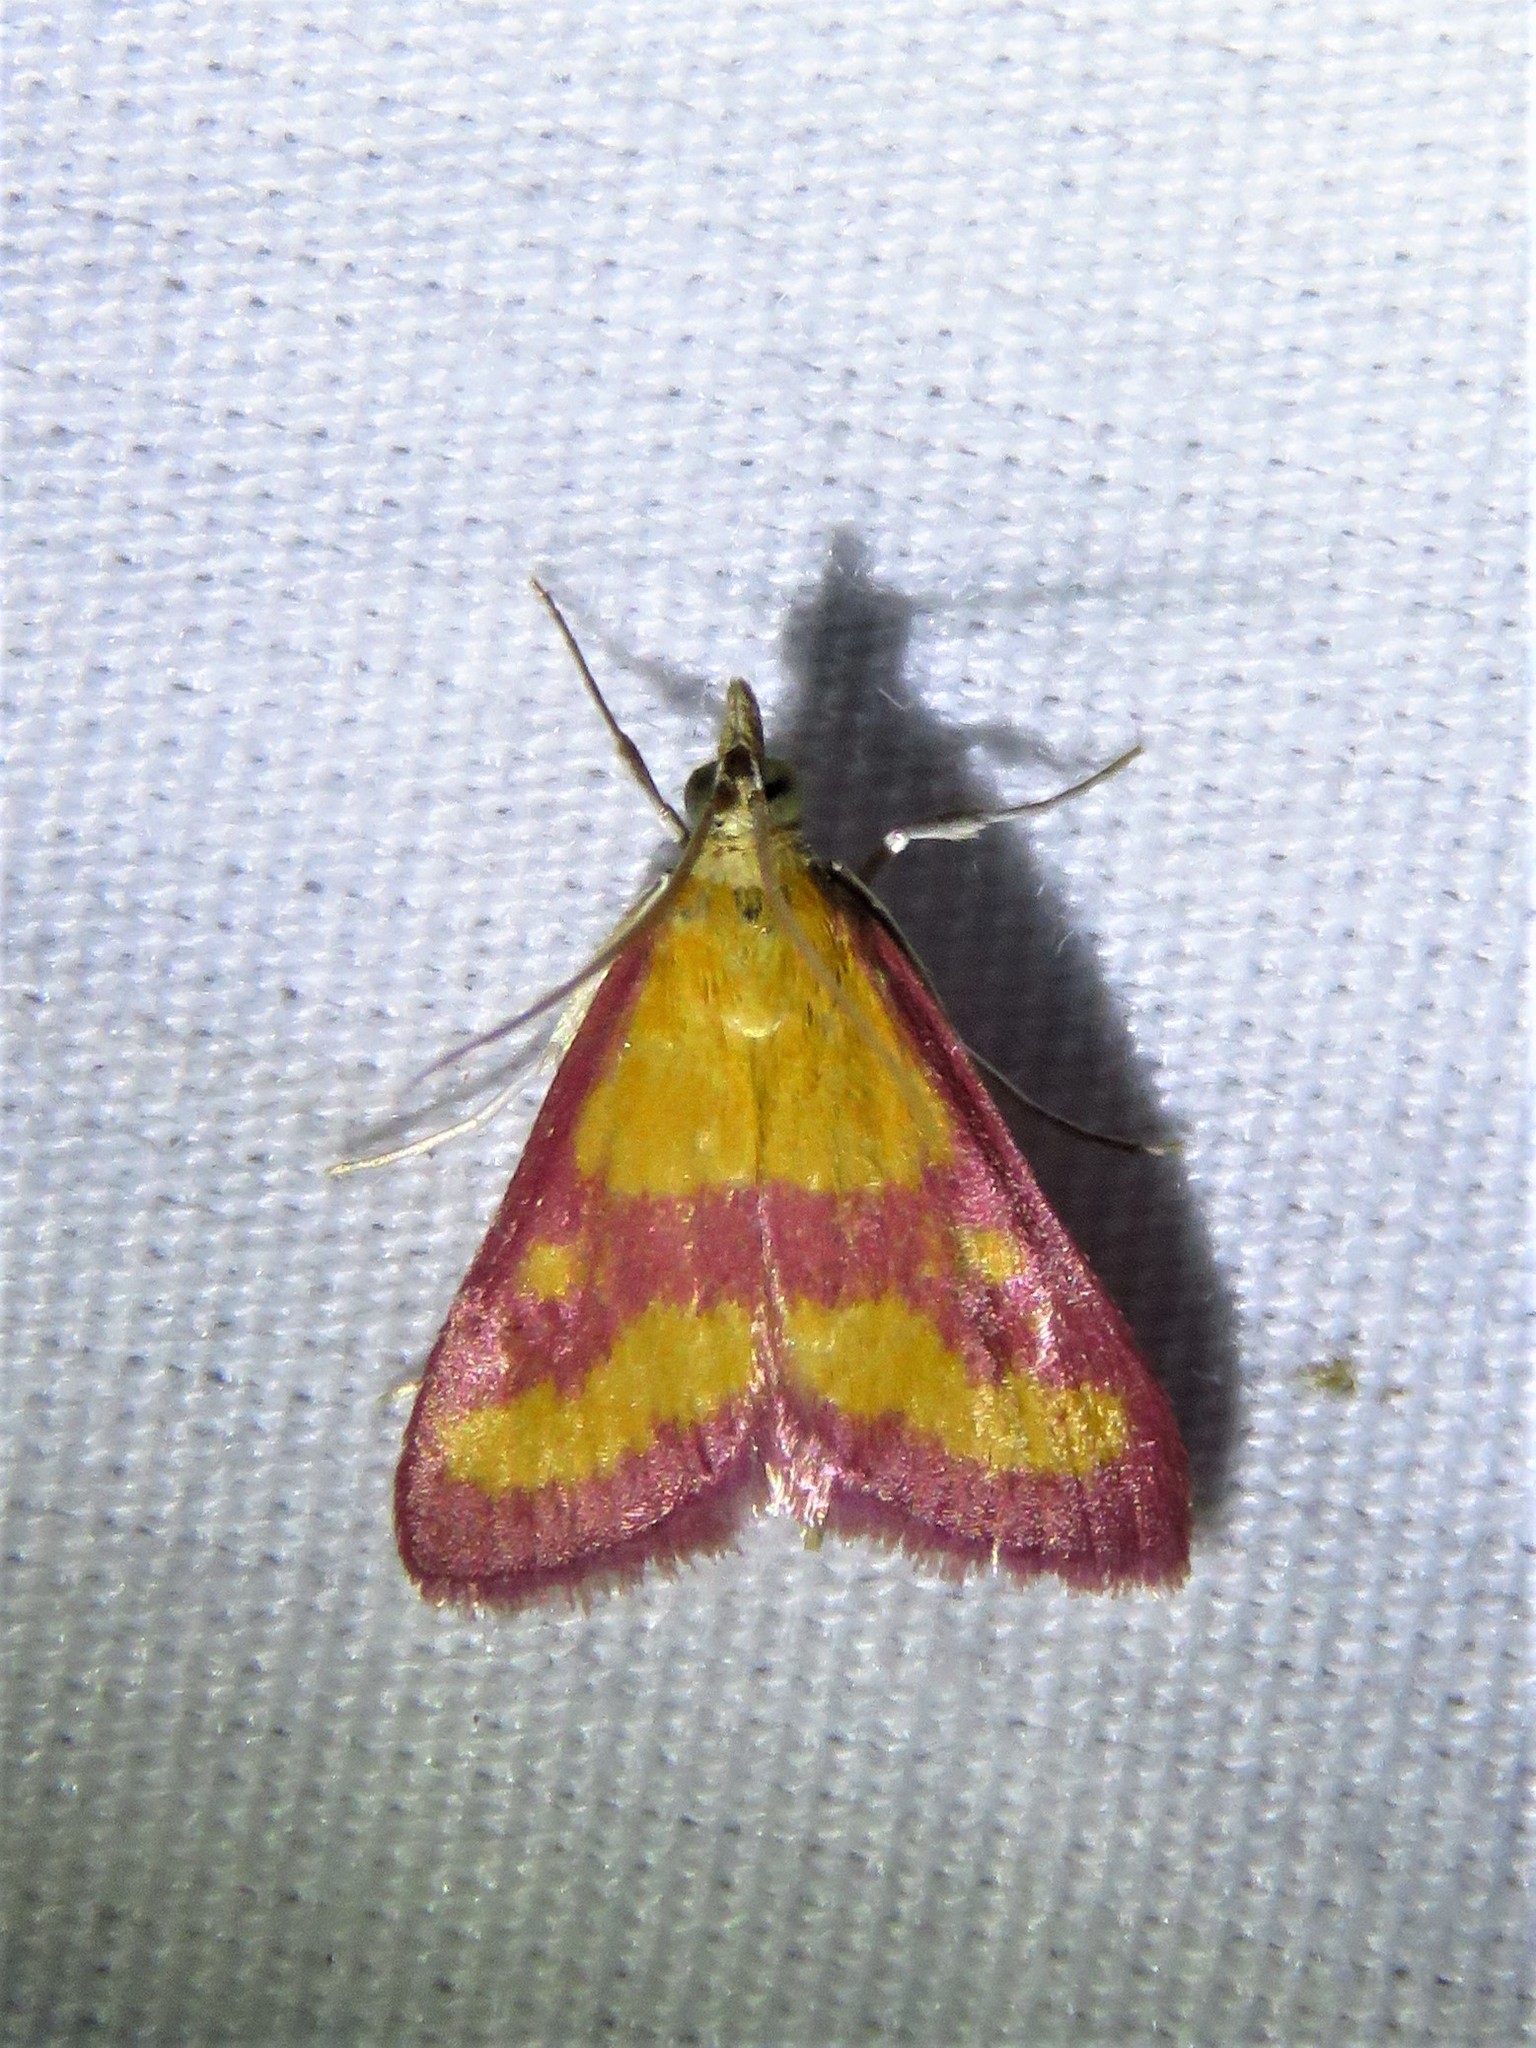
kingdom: Animalia
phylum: Arthropoda
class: Insecta
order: Lepidoptera
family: Crambidae
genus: Pyrausta
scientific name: Pyrausta laticlavia
